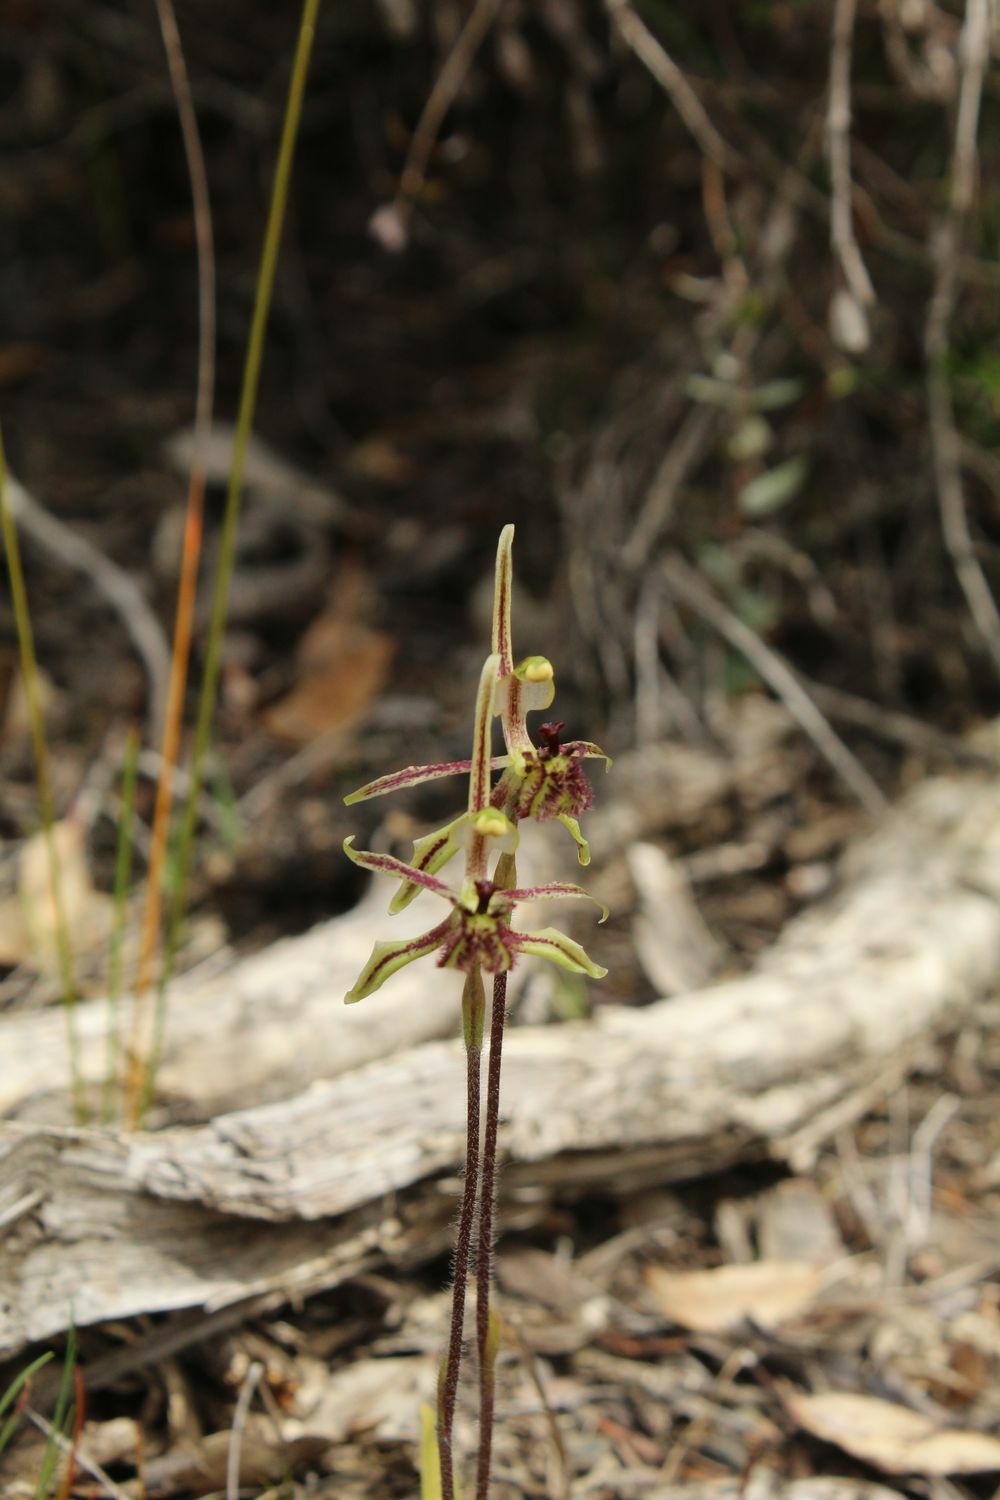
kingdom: Plantae
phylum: Tracheophyta
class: Liliopsida
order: Asparagales
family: Orchidaceae
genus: Caladenia
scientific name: Caladenia barbarossa
